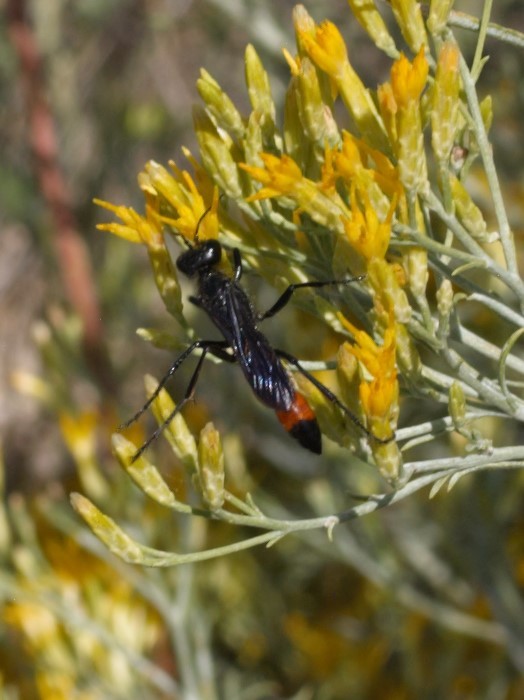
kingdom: Animalia
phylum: Arthropoda
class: Insecta
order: Hymenoptera
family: Sphecidae
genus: Podalonia
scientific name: Podalonia
